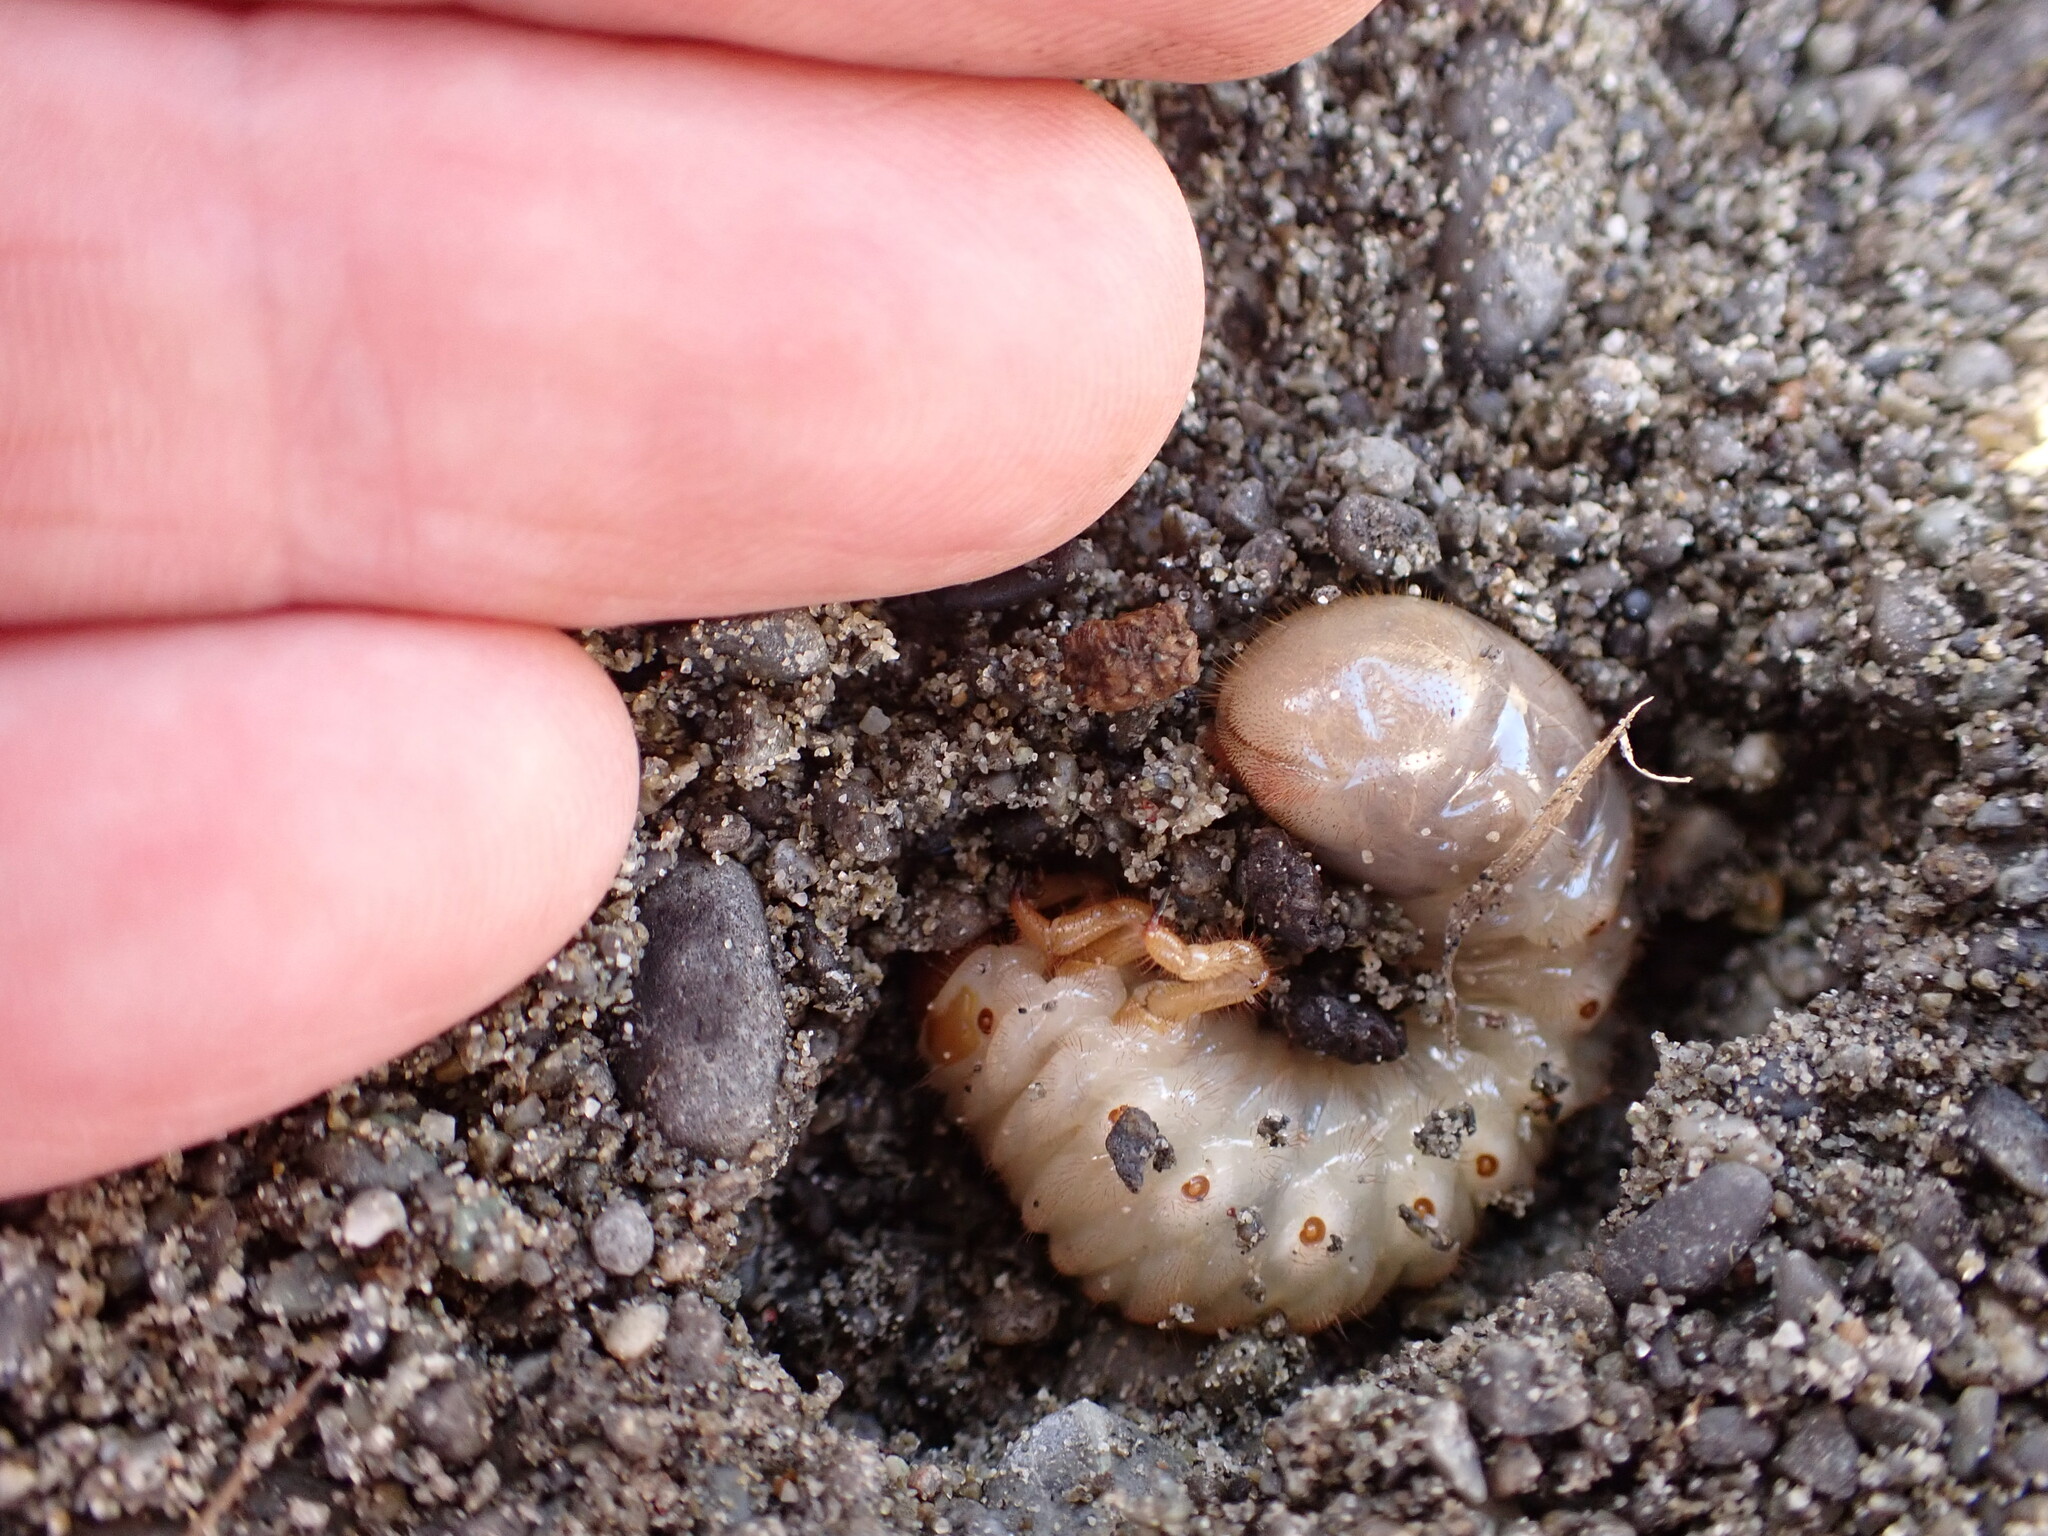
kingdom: Animalia
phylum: Arthropoda
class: Insecta
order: Coleoptera
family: Scarabaeidae
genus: Pericoptus
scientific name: Pericoptus truncatus
